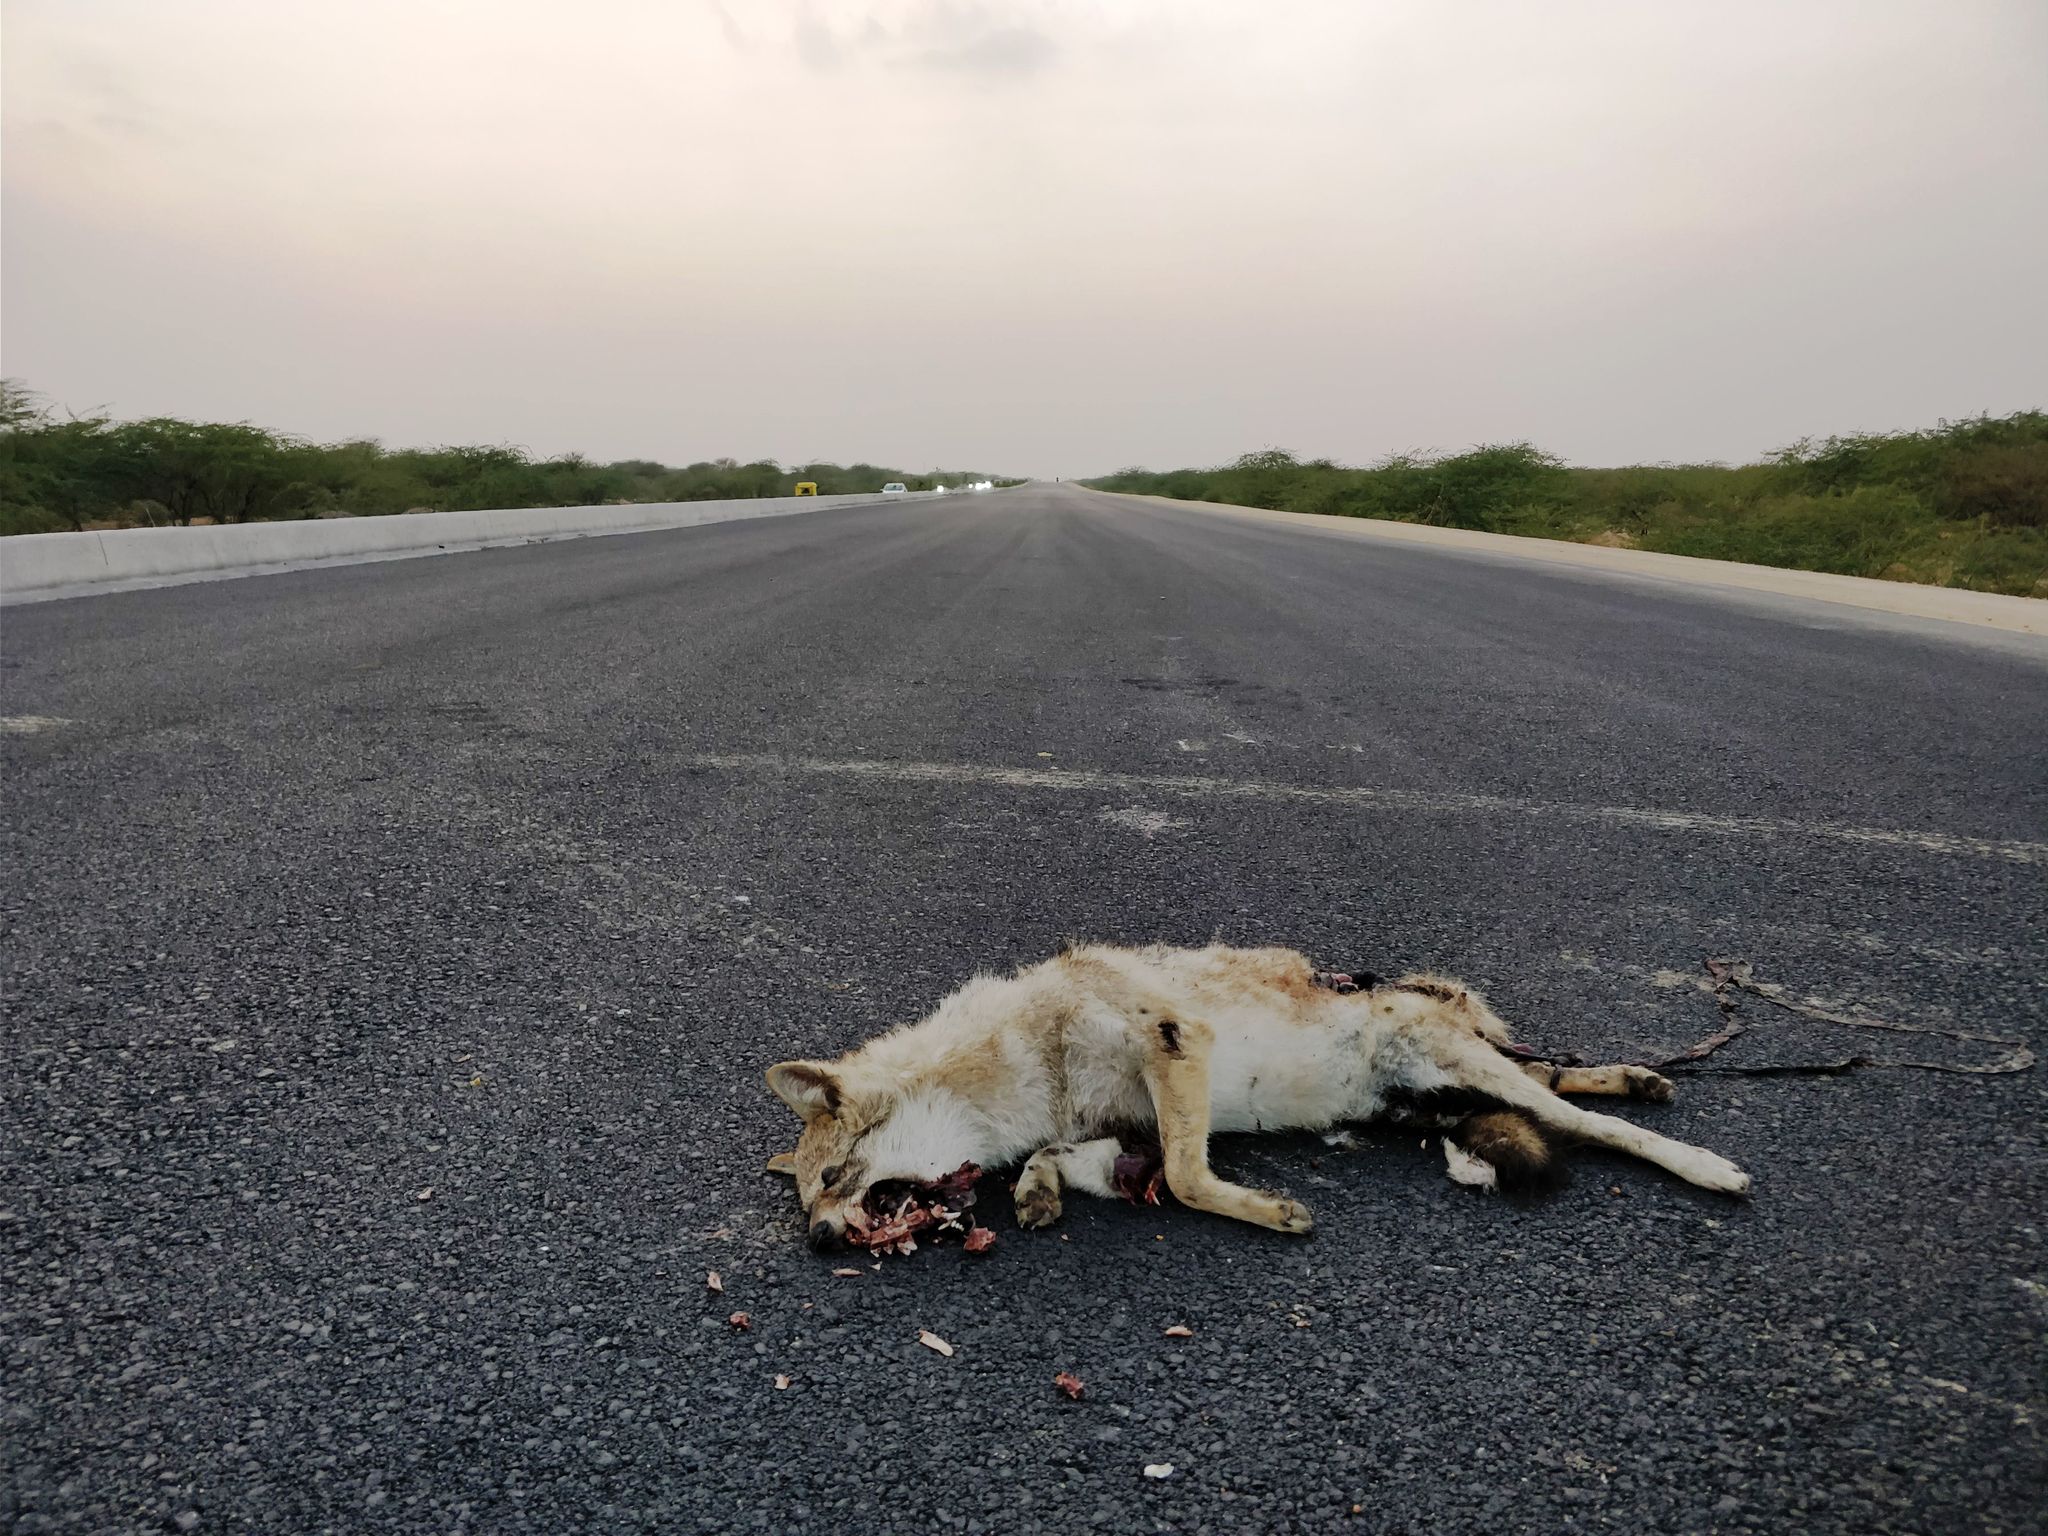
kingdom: Animalia
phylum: Chordata
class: Mammalia
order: Carnivora
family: Canidae
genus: Canis
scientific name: Canis aureus
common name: Golden jackal
